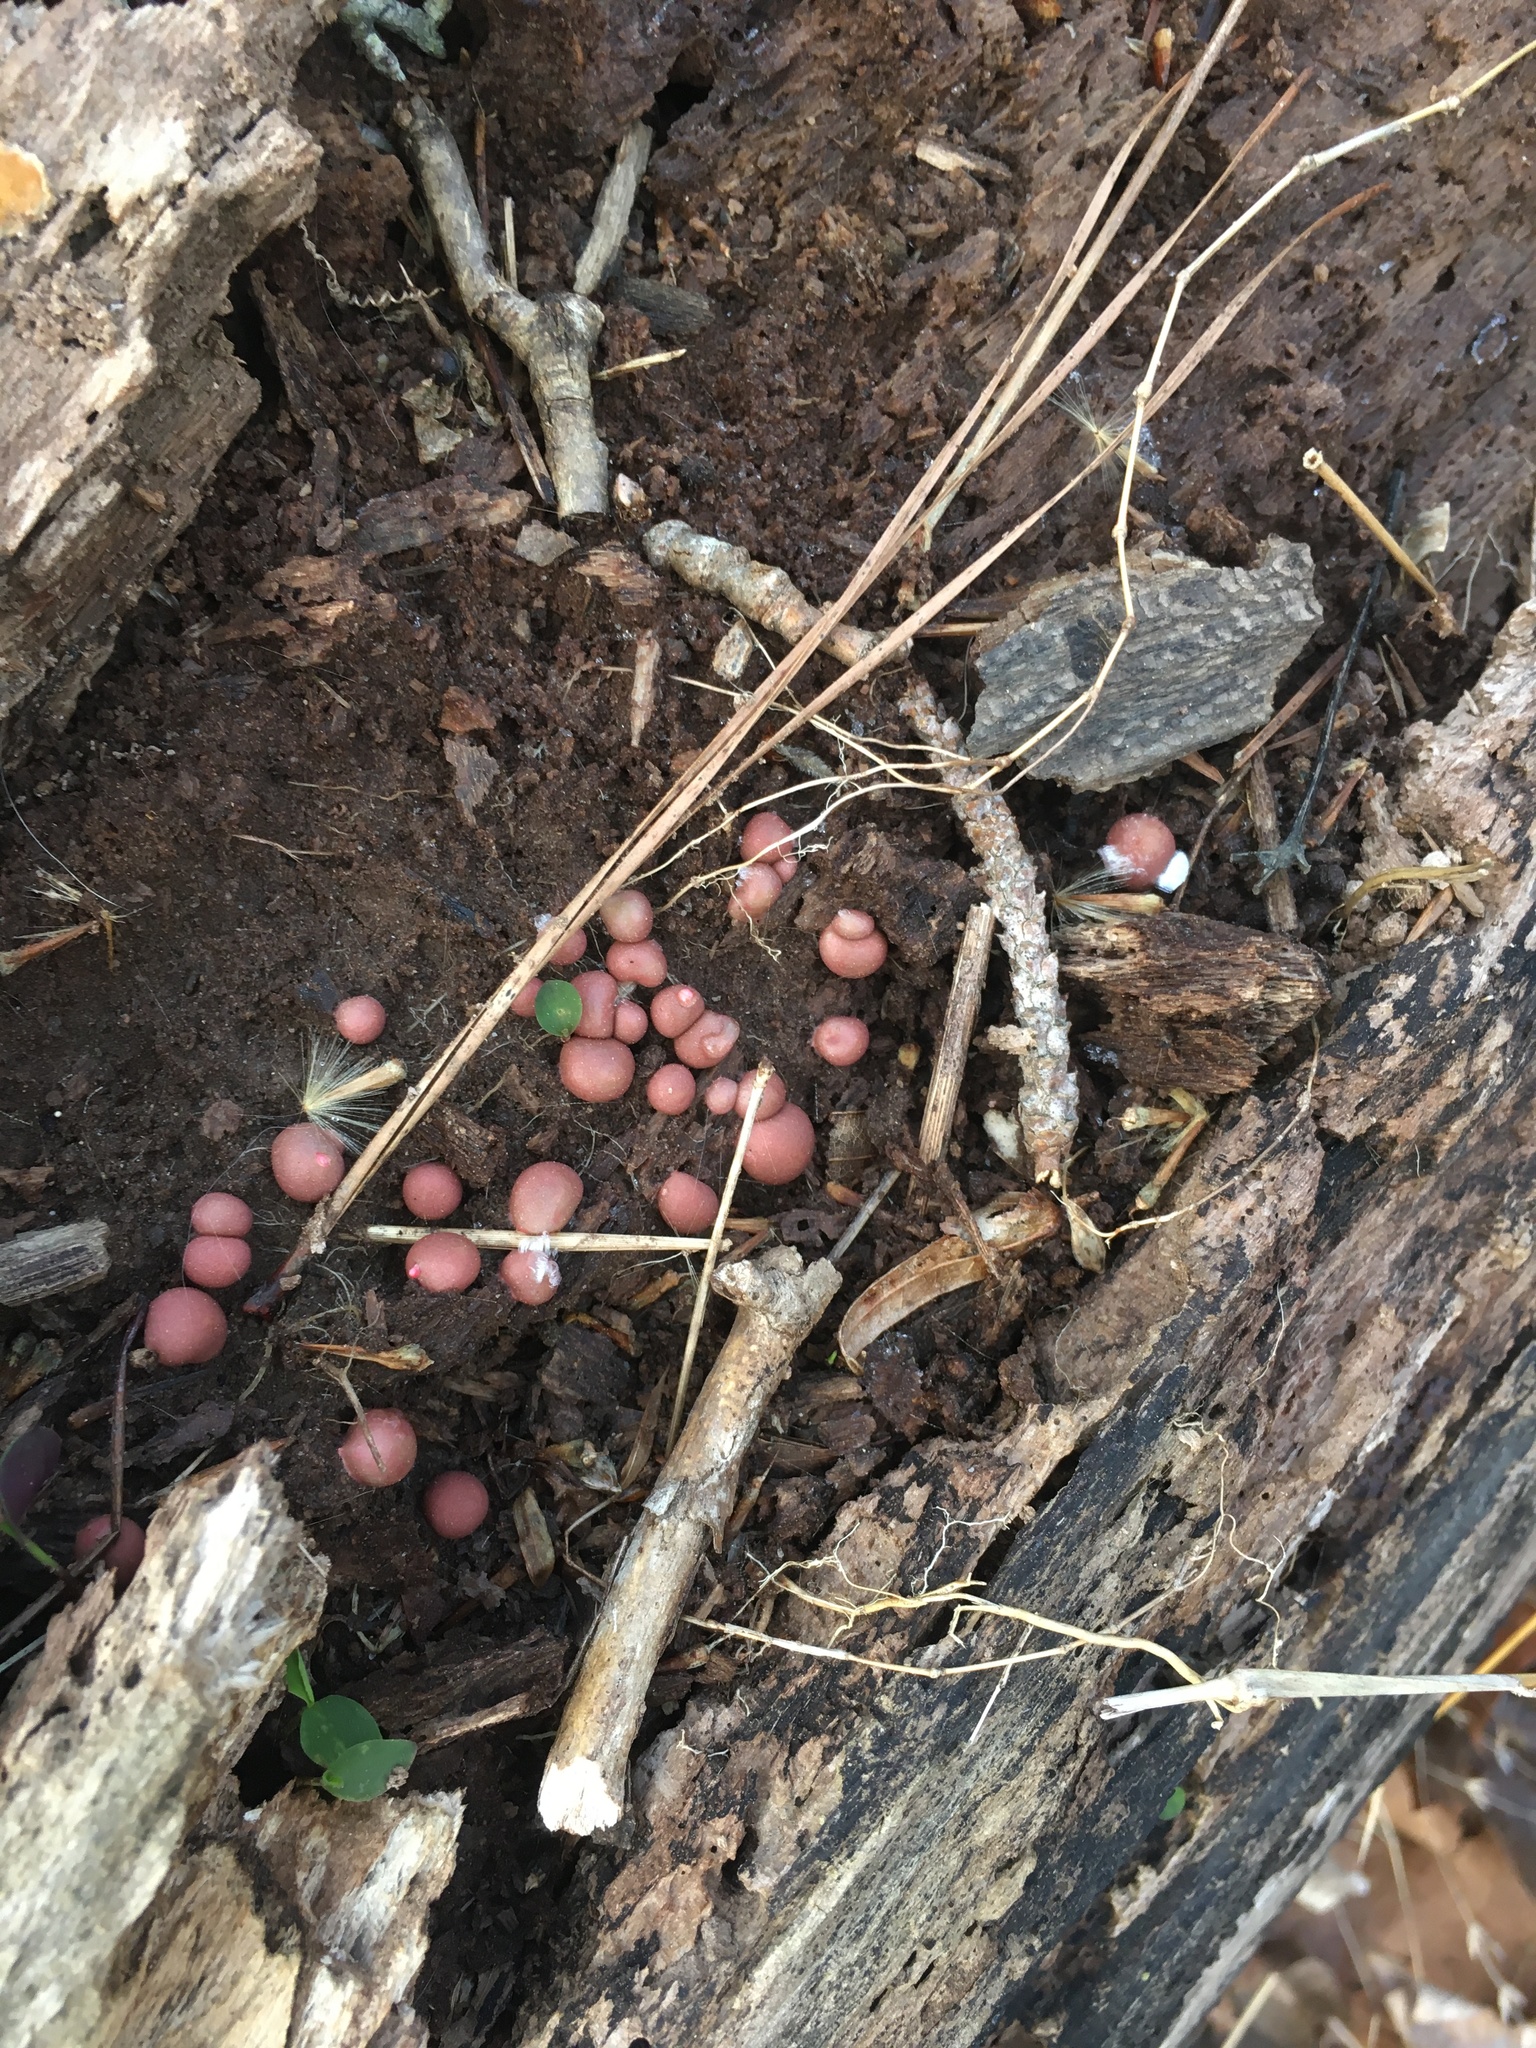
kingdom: Protozoa
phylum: Mycetozoa
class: Myxomycetes
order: Cribrariales
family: Tubiferaceae
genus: Lycogala
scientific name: Lycogala epidendrum
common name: Wolf's milk
